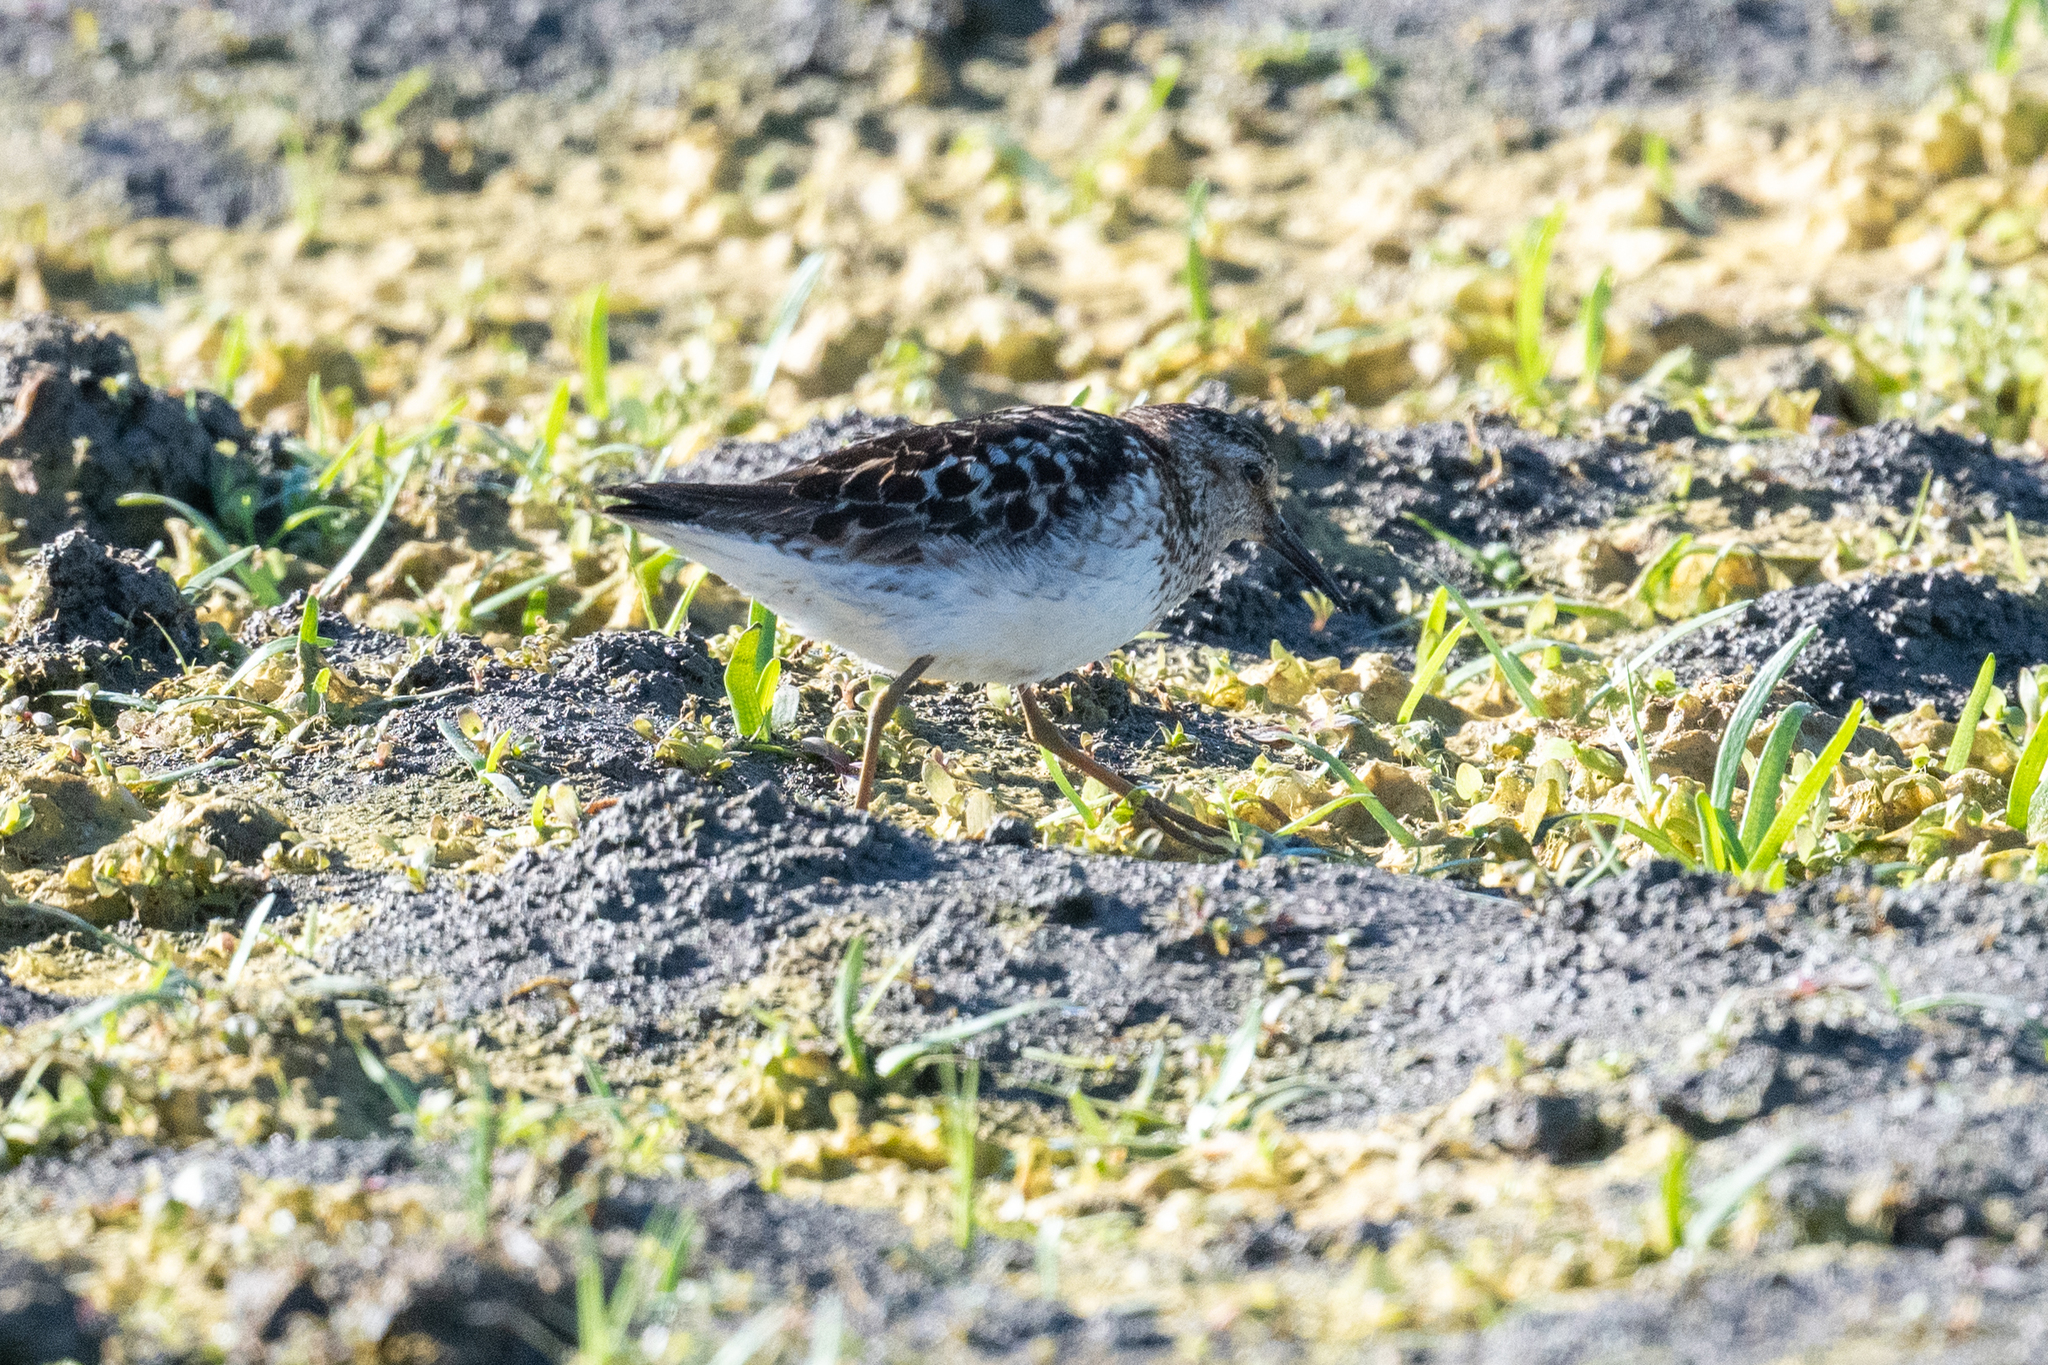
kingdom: Animalia
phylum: Chordata
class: Aves
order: Charadriiformes
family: Scolopacidae
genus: Calidris
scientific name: Calidris minutilla
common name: Least sandpiper
